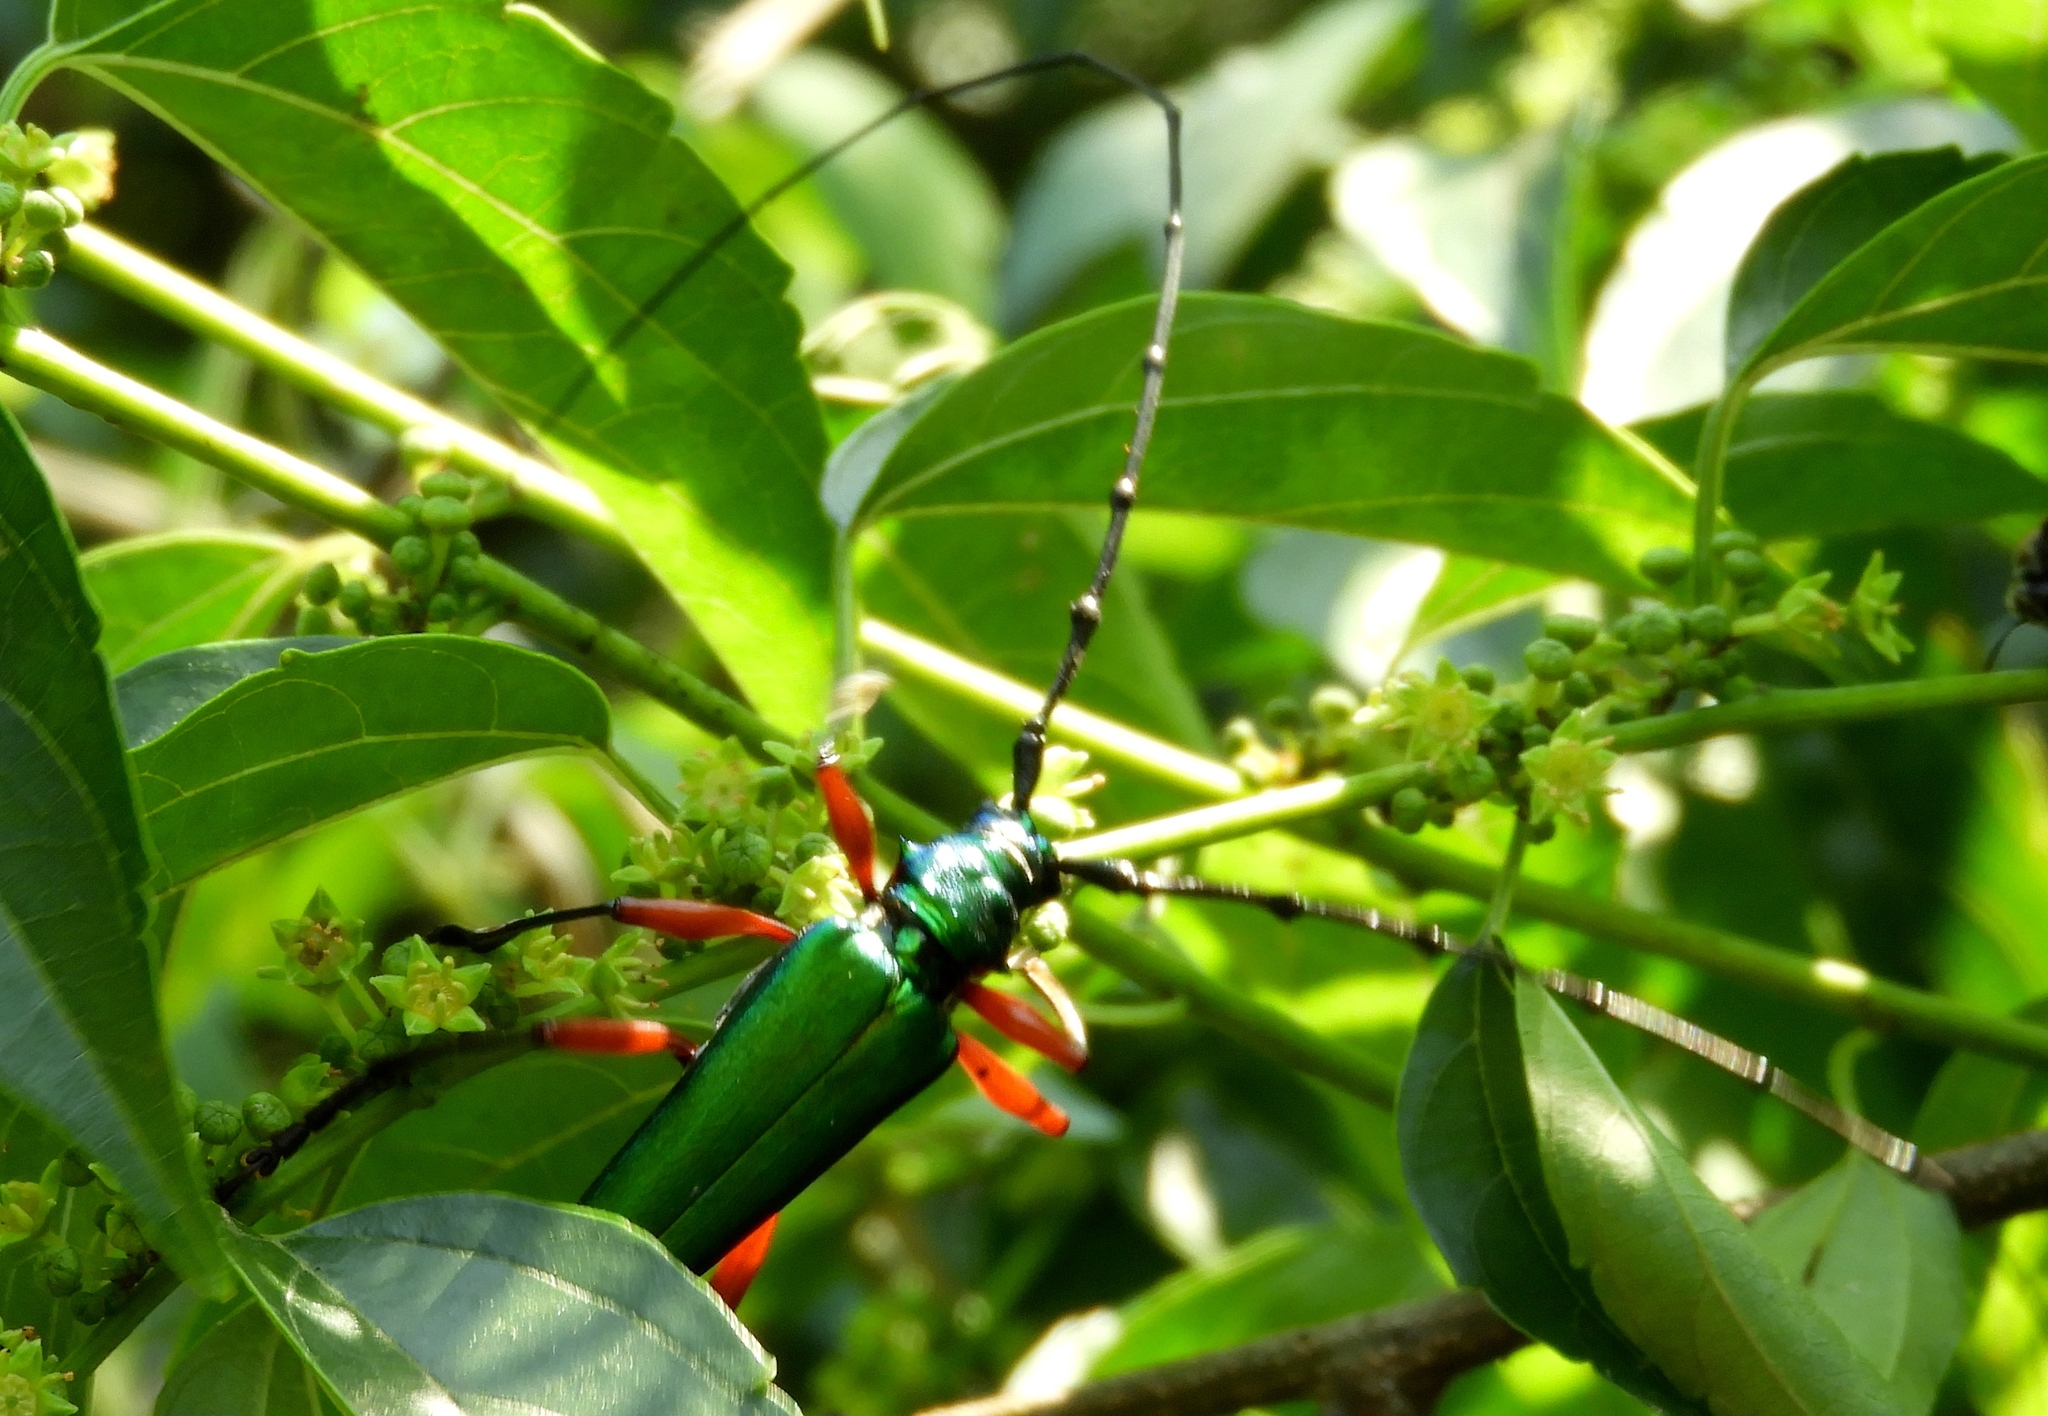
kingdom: Animalia
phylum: Arthropoda
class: Insecta
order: Coleoptera
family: Cerambycidae
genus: Plinthocoelium
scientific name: Plinthocoelium chilensis
